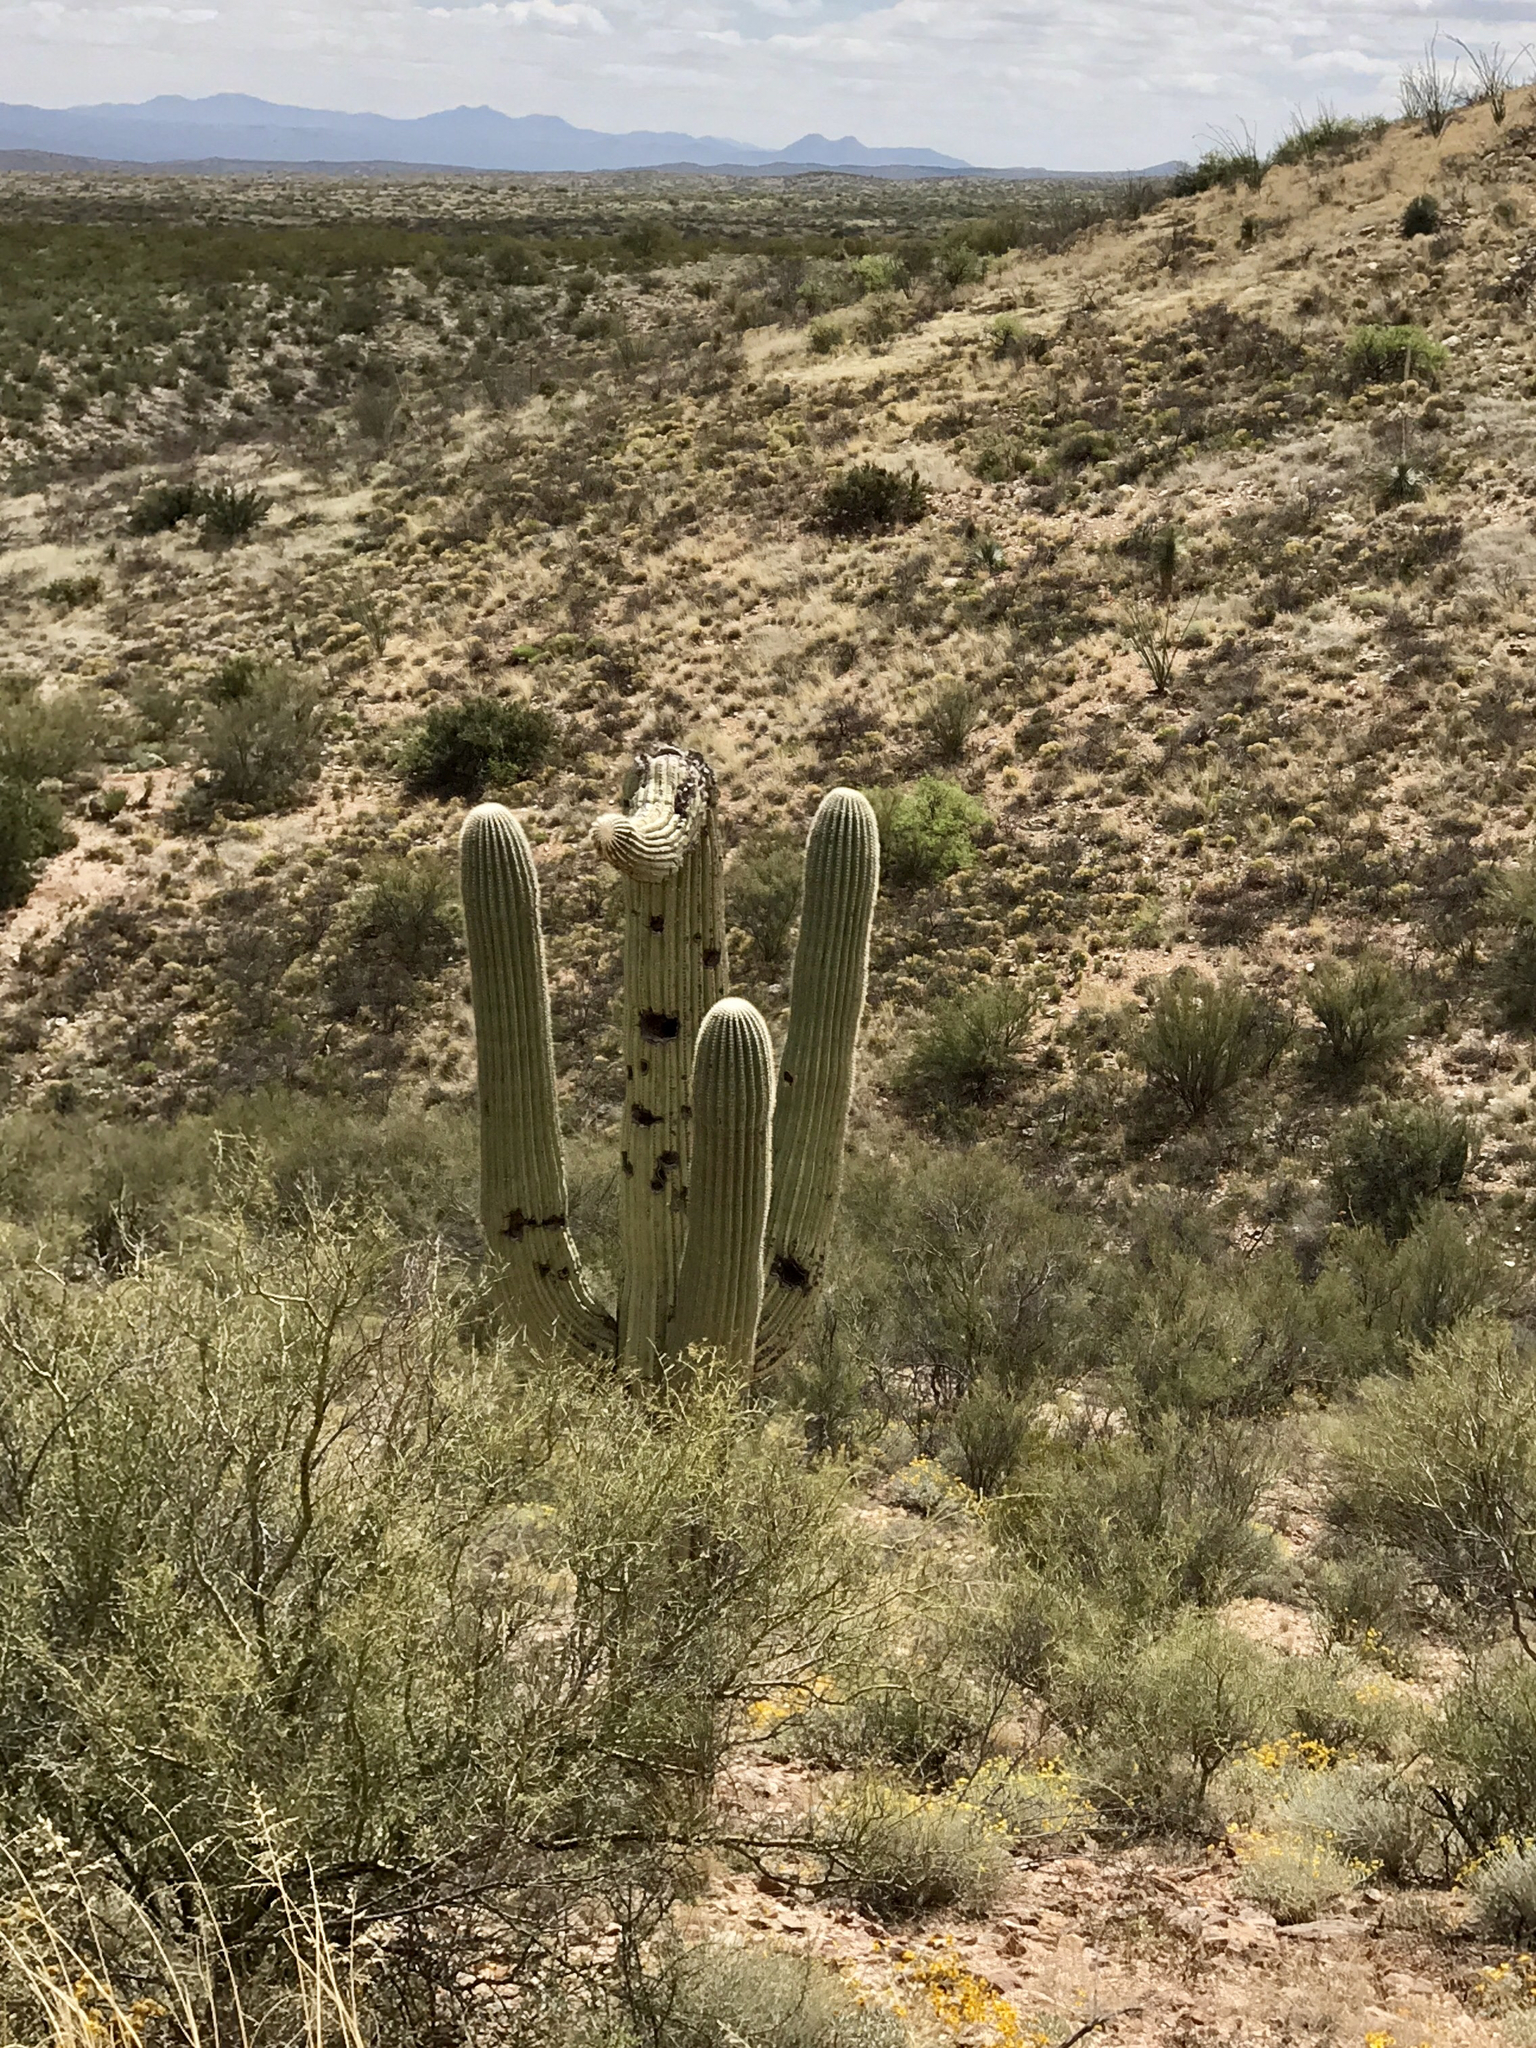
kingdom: Plantae
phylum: Tracheophyta
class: Magnoliopsida
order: Caryophyllales
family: Cactaceae
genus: Carnegiea
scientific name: Carnegiea gigantea
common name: Saguaro
